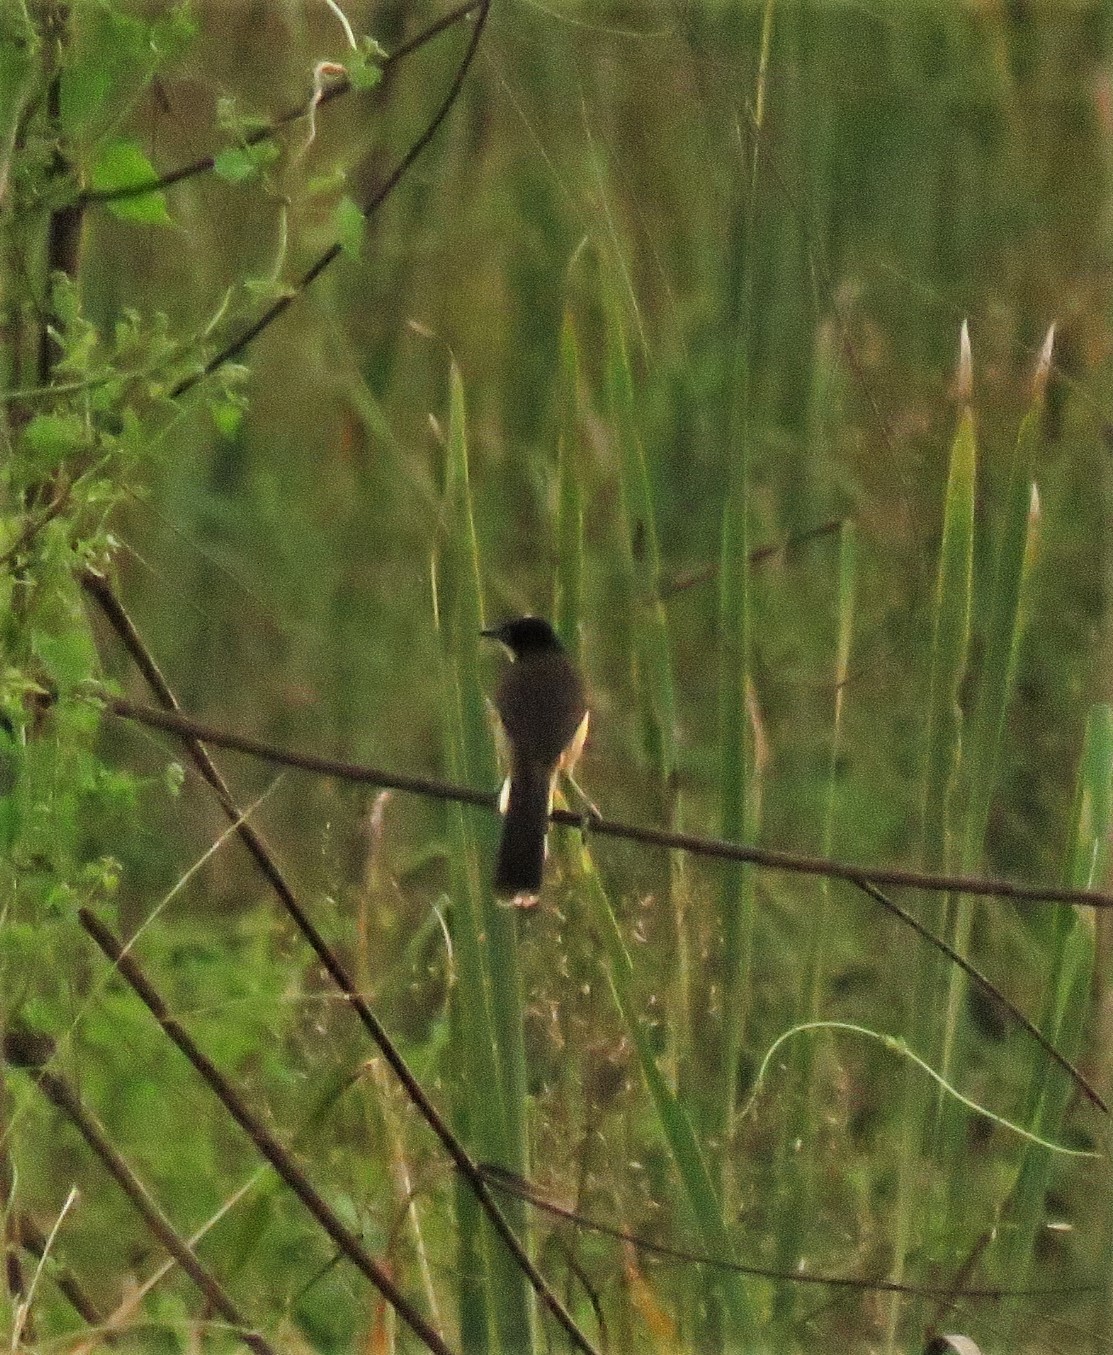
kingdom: Animalia
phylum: Chordata
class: Aves
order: Passeriformes
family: Donacobiidae
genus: Donacobius
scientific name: Donacobius atricapilla
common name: Black-capped donacobius
